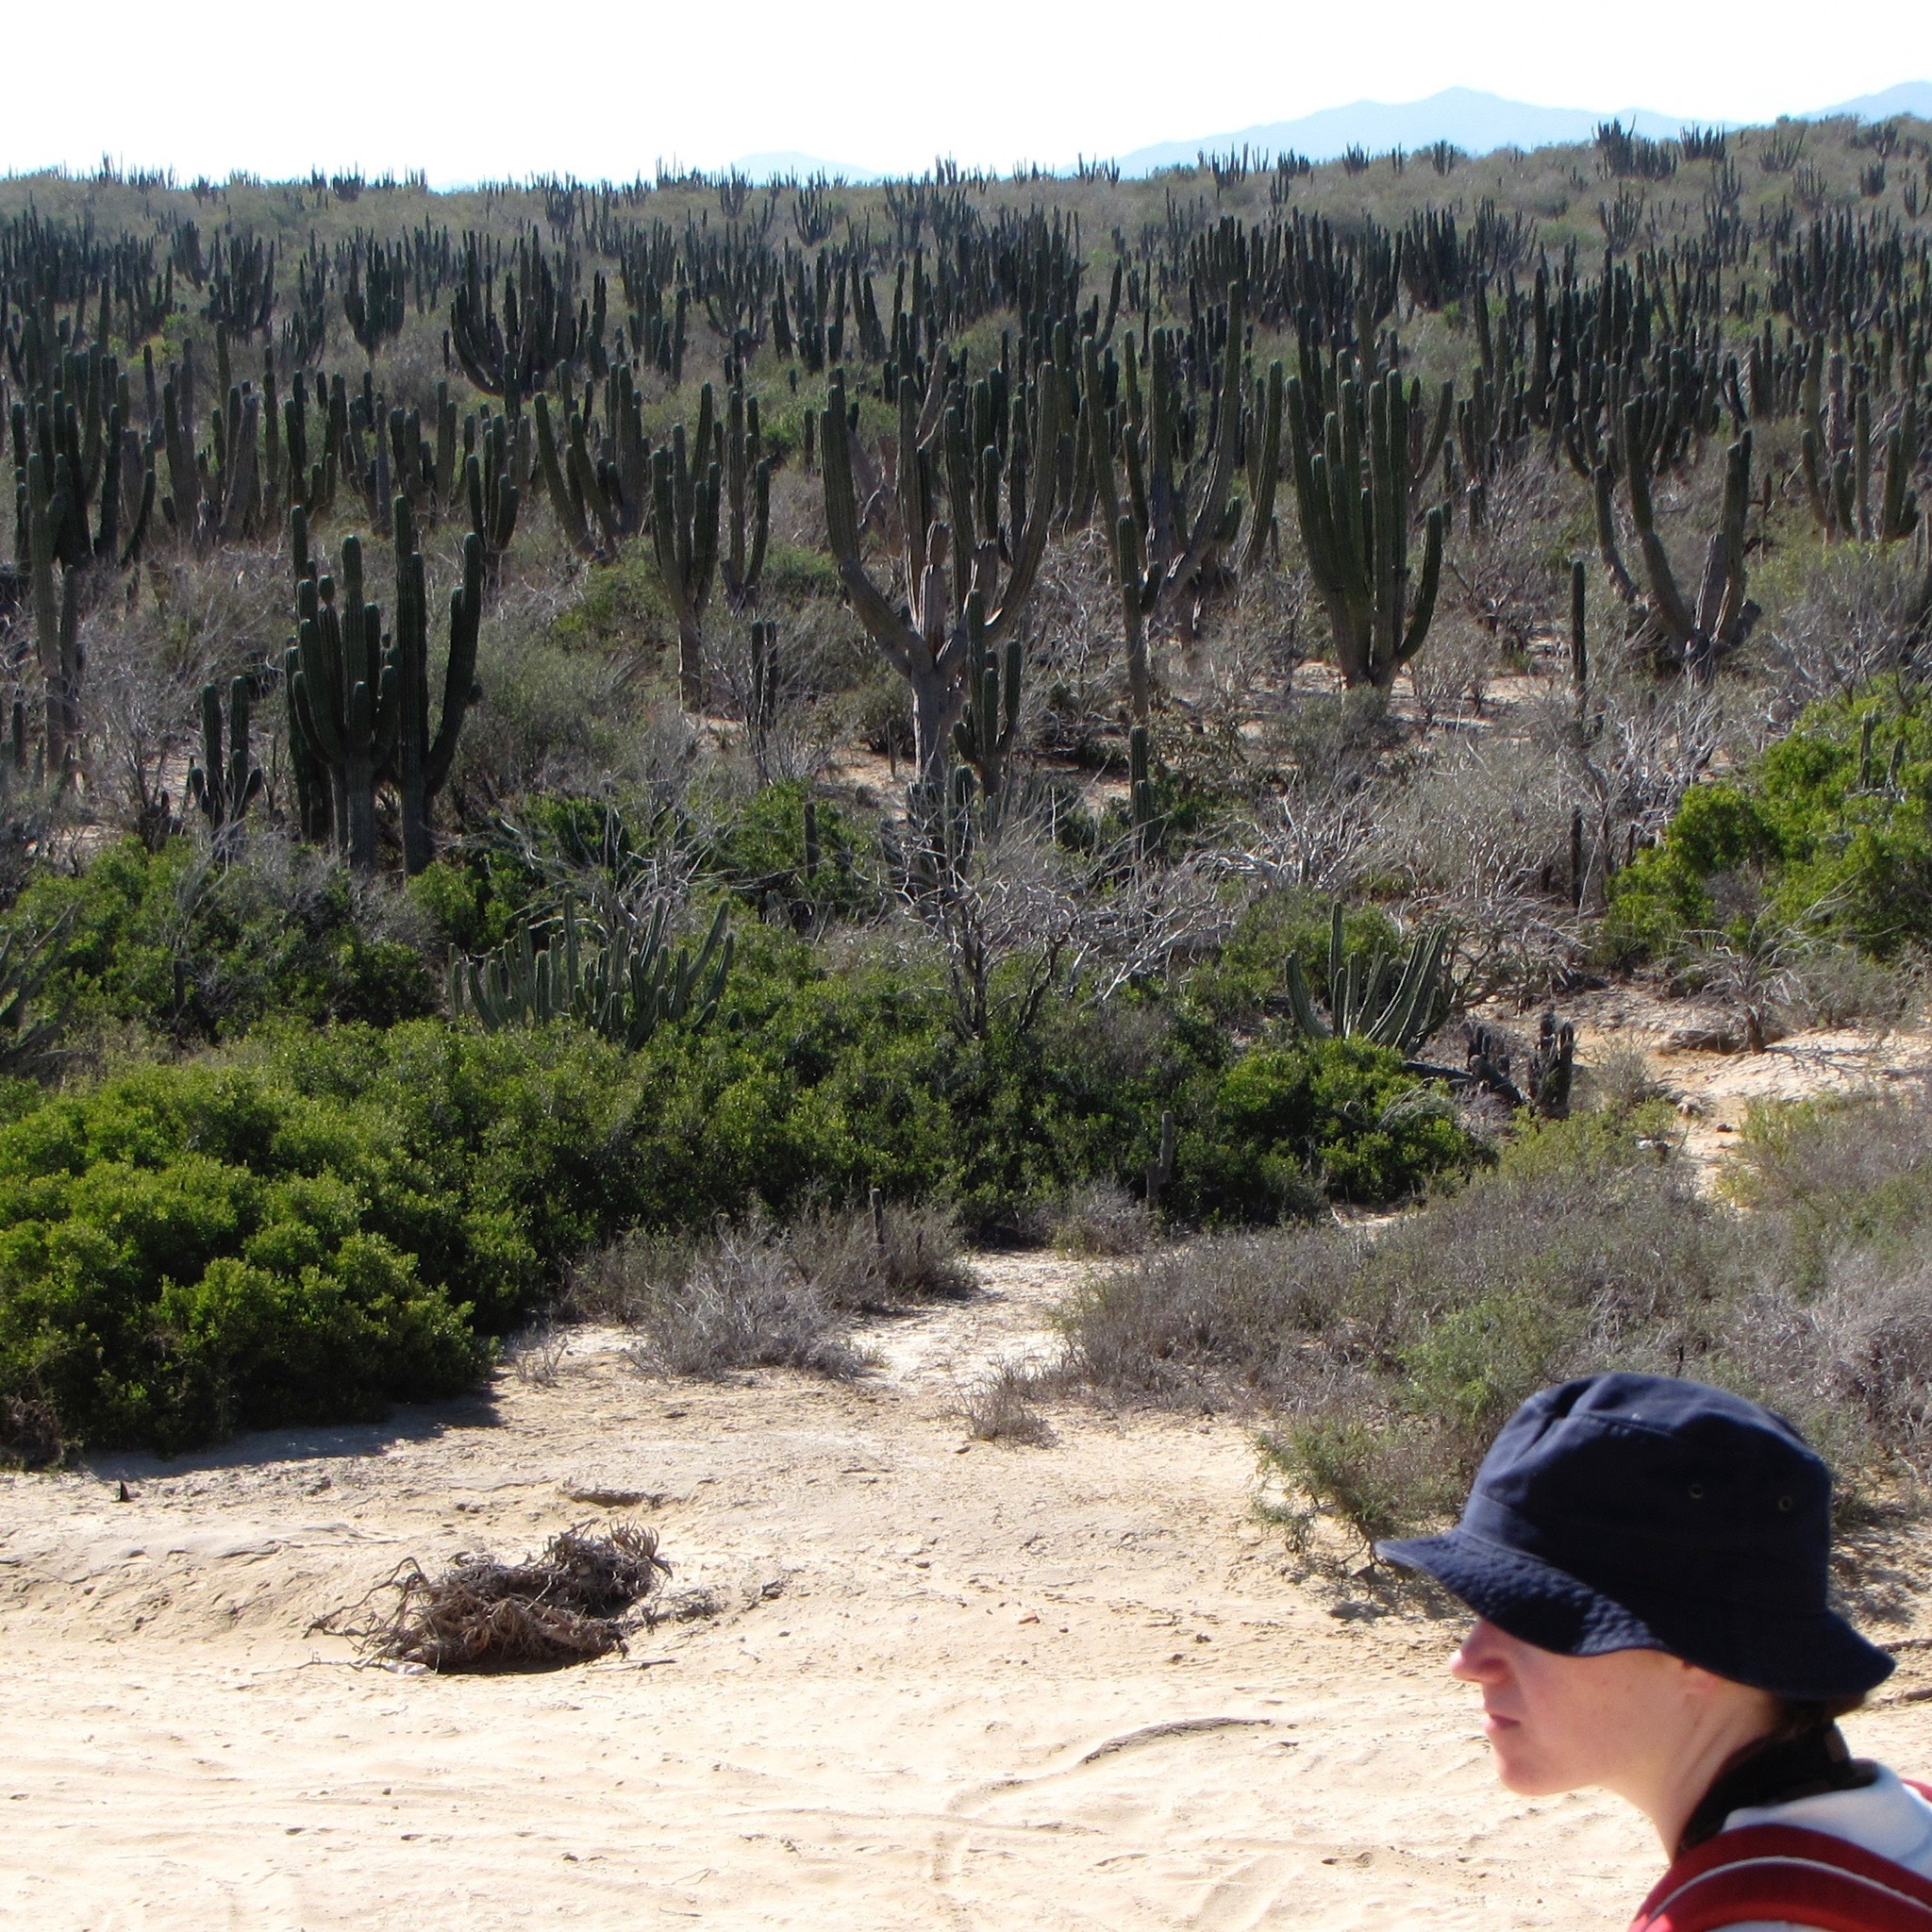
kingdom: Plantae
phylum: Tracheophyta
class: Magnoliopsida
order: Caryophyllales
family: Cactaceae
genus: Pachycereus
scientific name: Pachycereus pringlei
